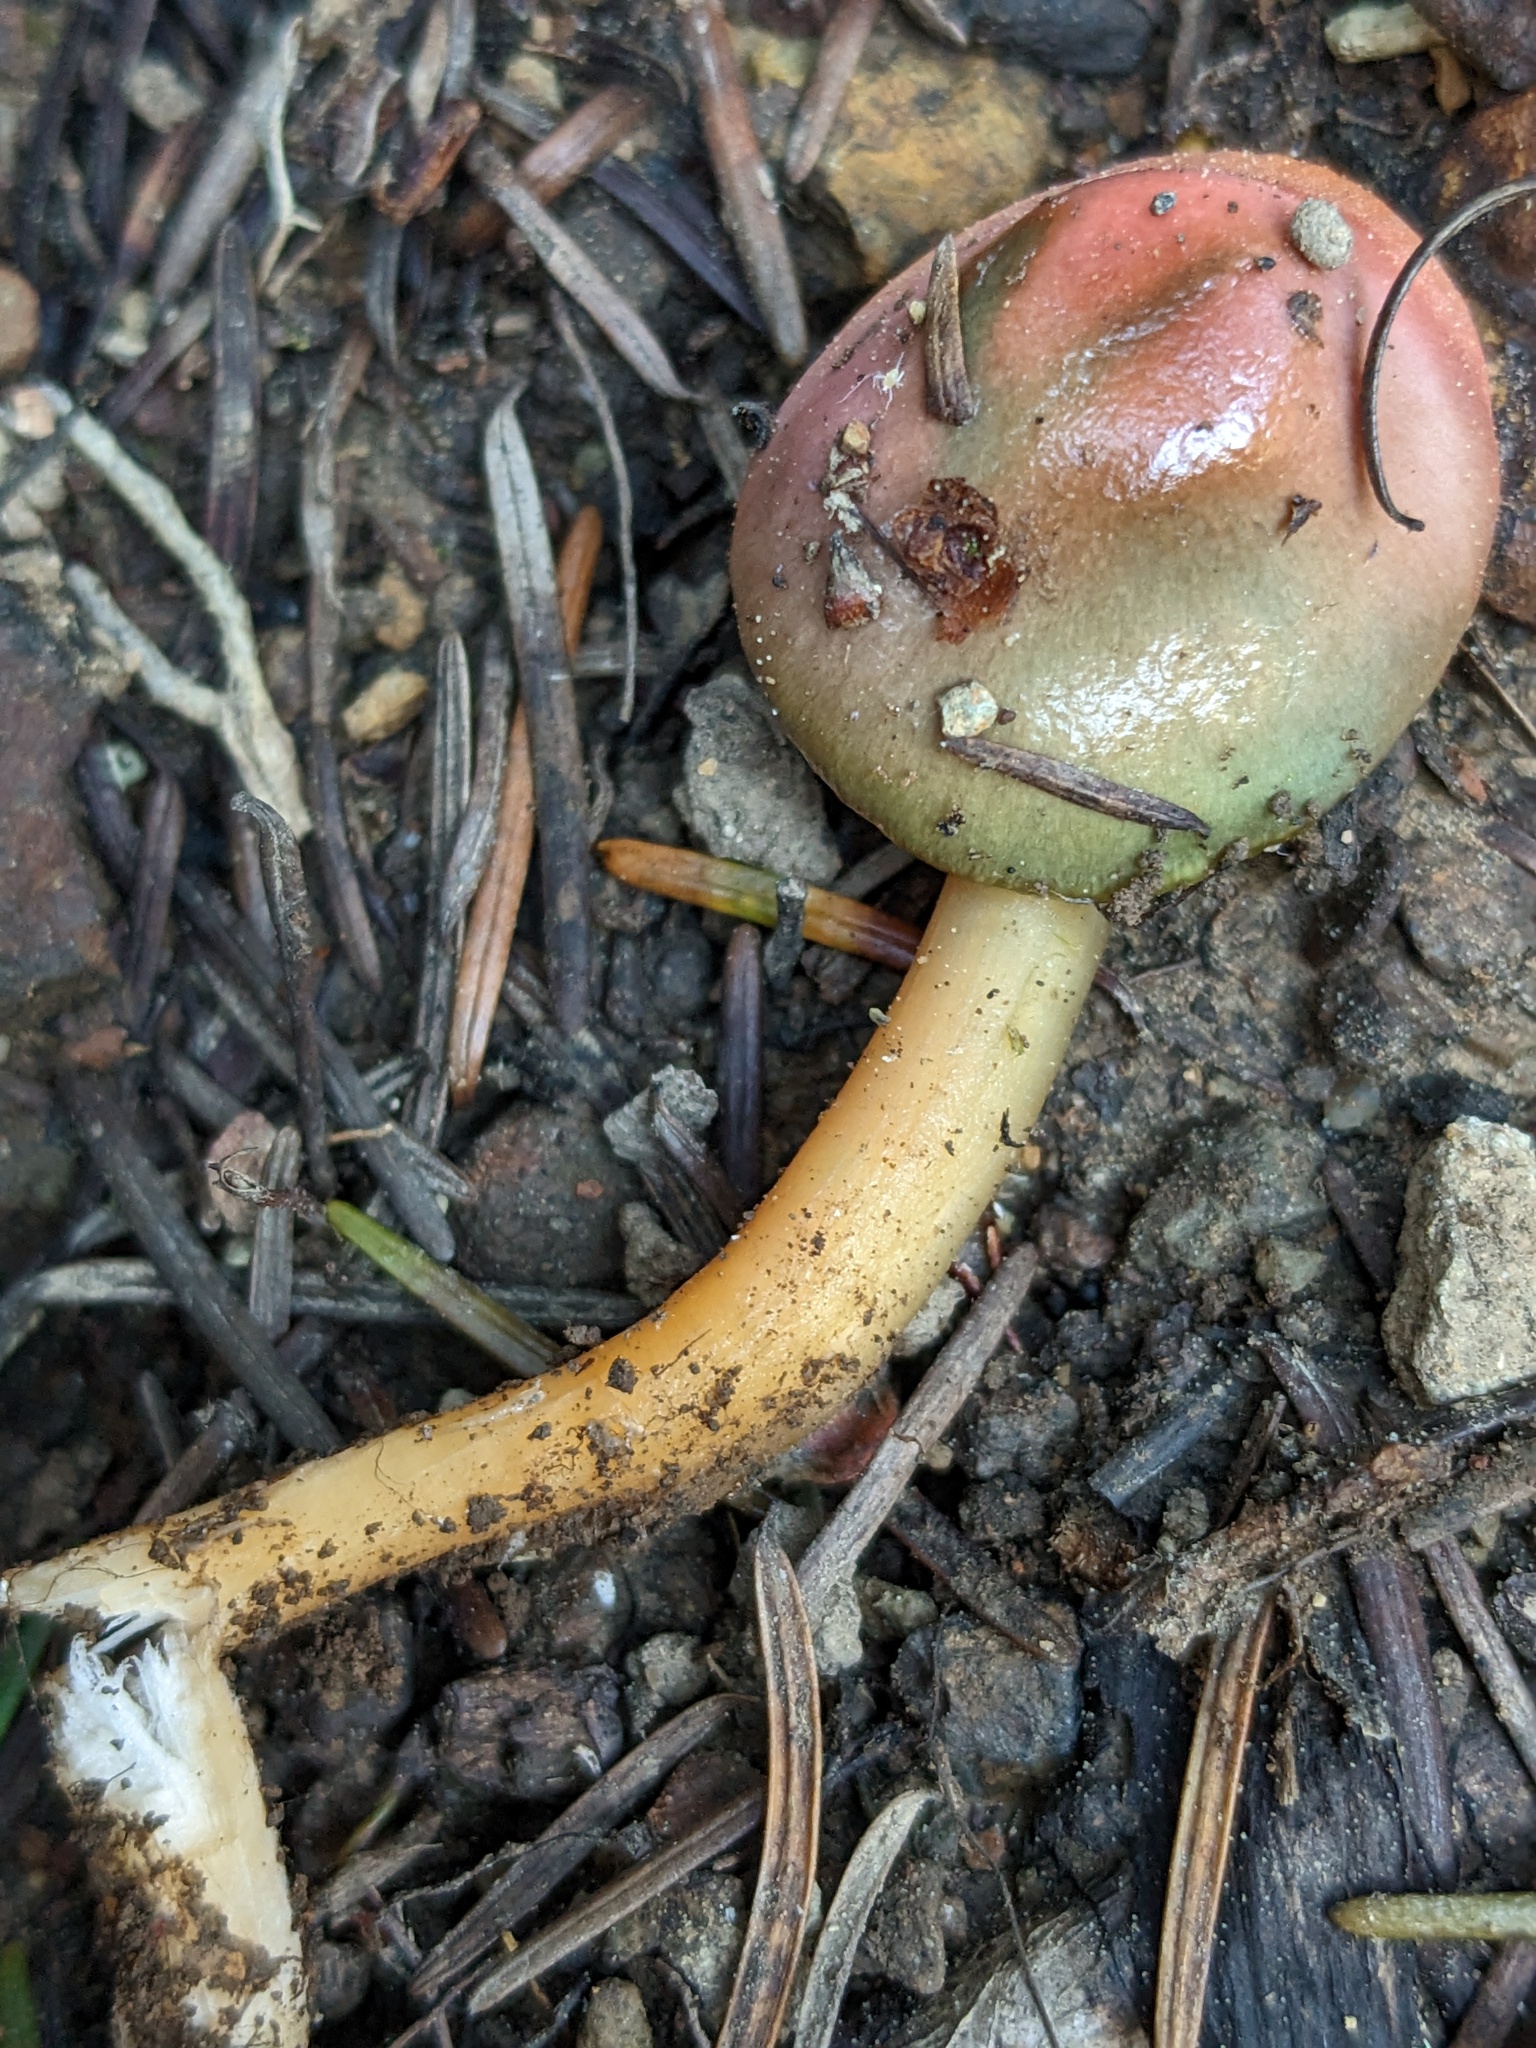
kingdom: Fungi
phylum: Basidiomycota
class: Agaricomycetes
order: Agaricales
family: Hygrophoraceae
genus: Gliophorus
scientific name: Gliophorus psittacinus
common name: Parrot wax-cap
